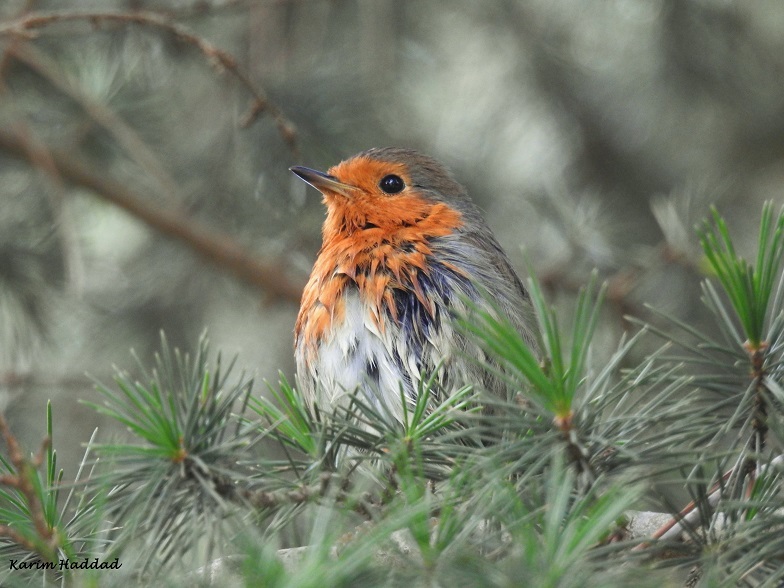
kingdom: Animalia
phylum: Chordata
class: Aves
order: Passeriformes
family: Muscicapidae
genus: Erithacus
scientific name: Erithacus rubecula
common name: European robin
